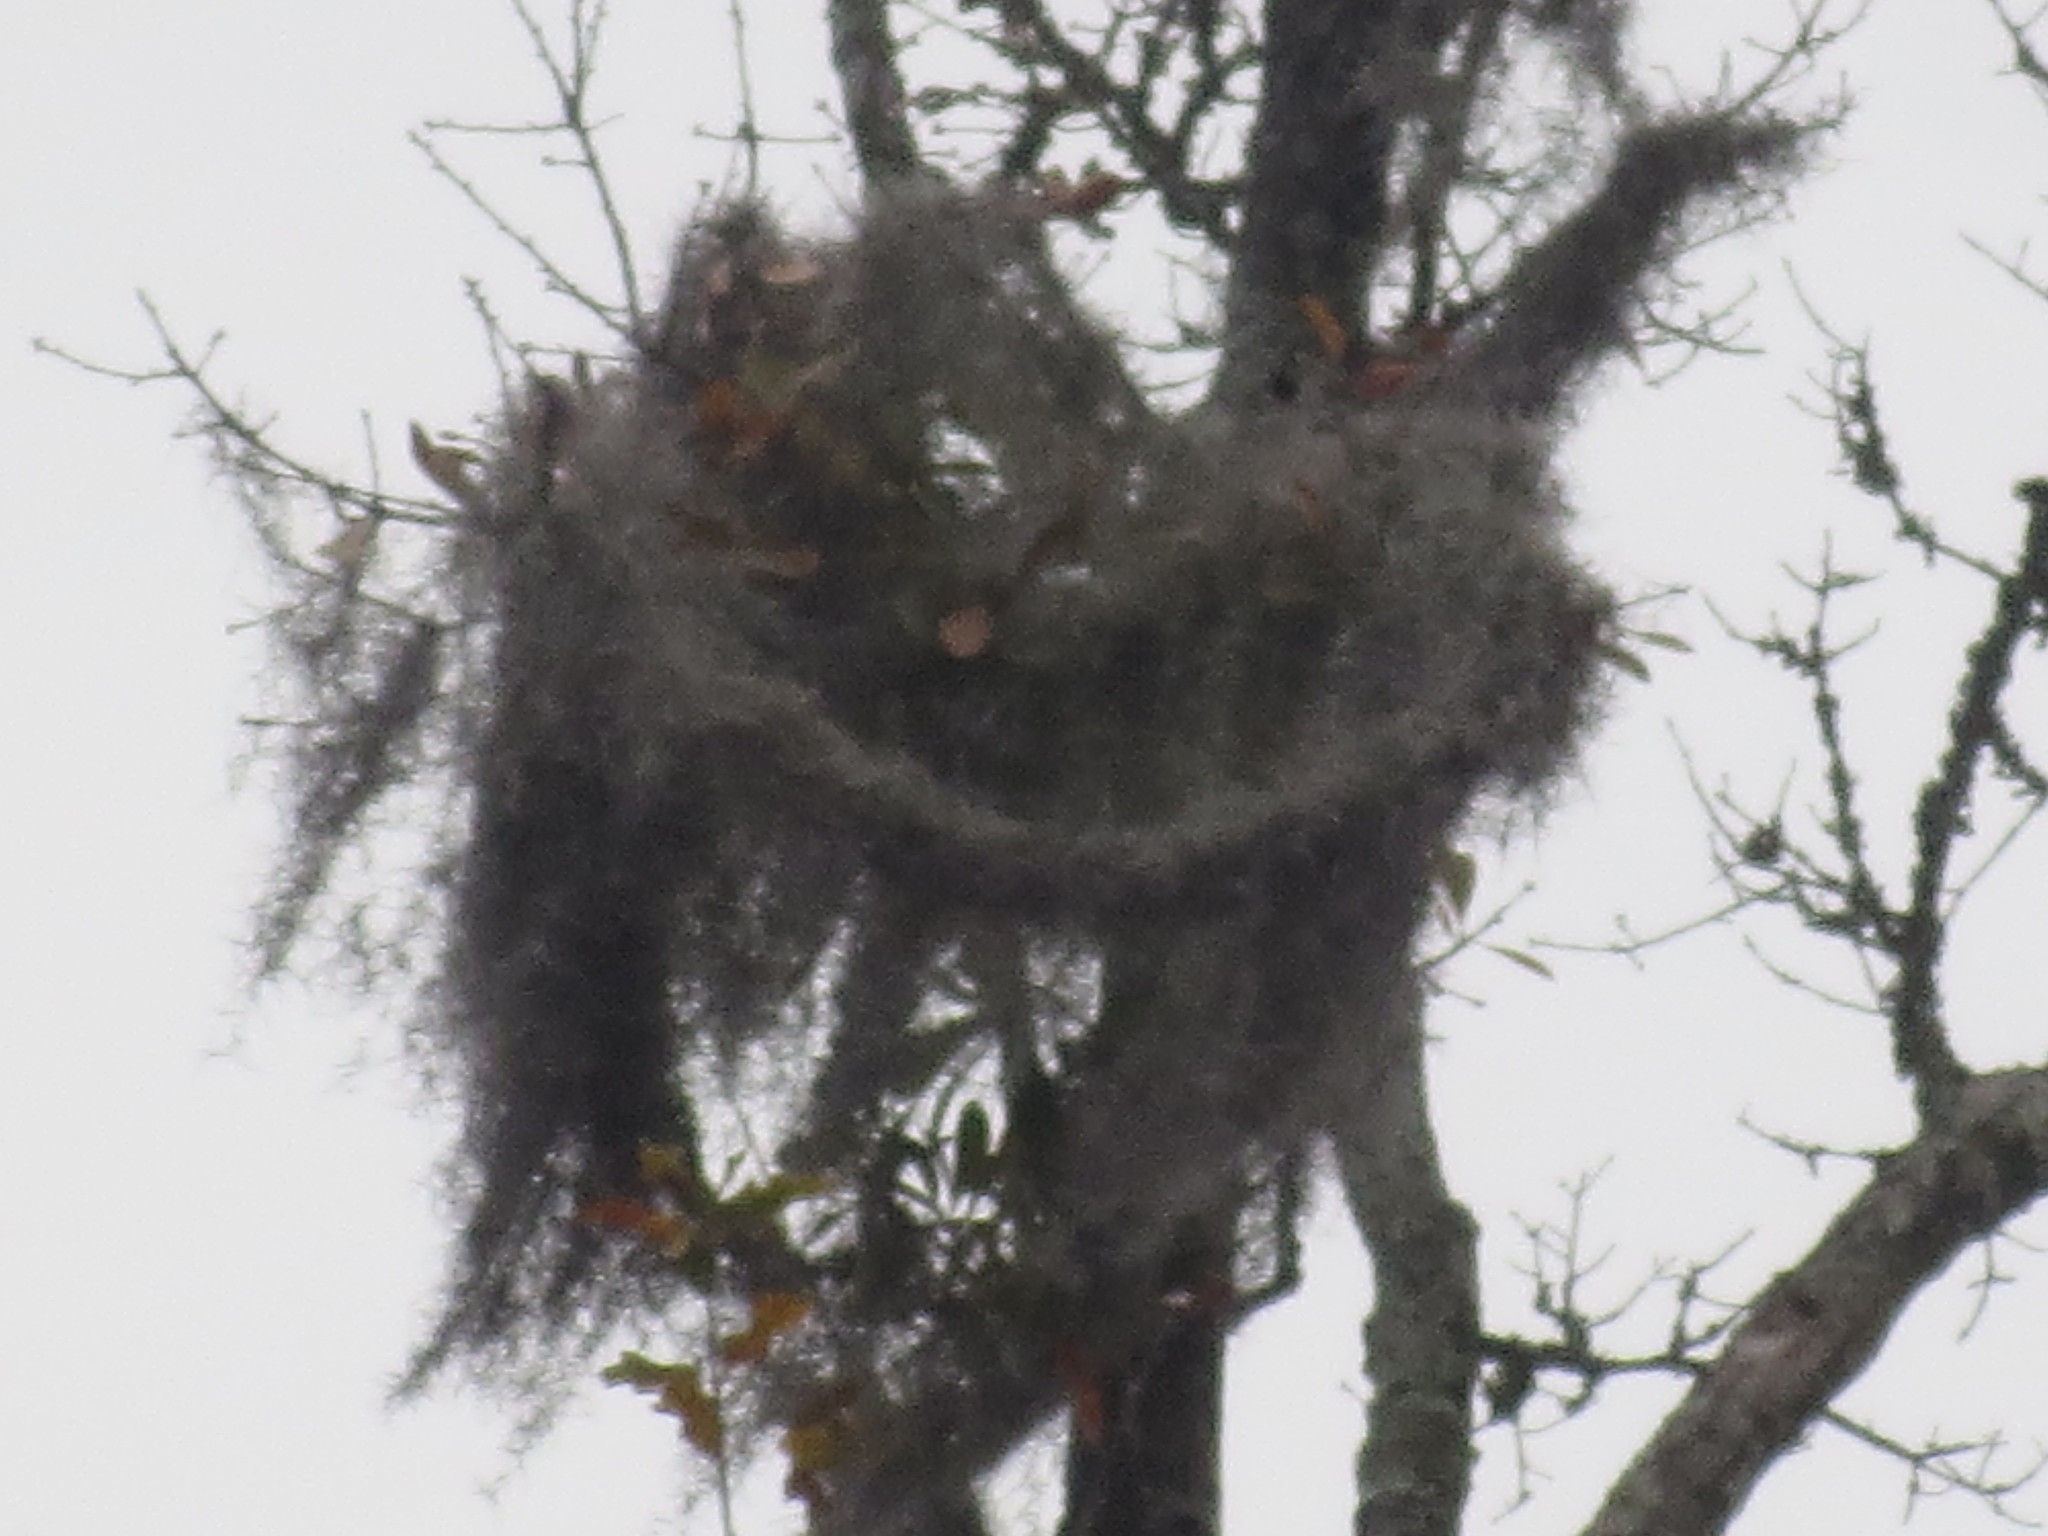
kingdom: Plantae
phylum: Tracheophyta
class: Liliopsida
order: Poales
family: Bromeliaceae
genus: Tillandsia
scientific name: Tillandsia usneoides
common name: Spanish moss
